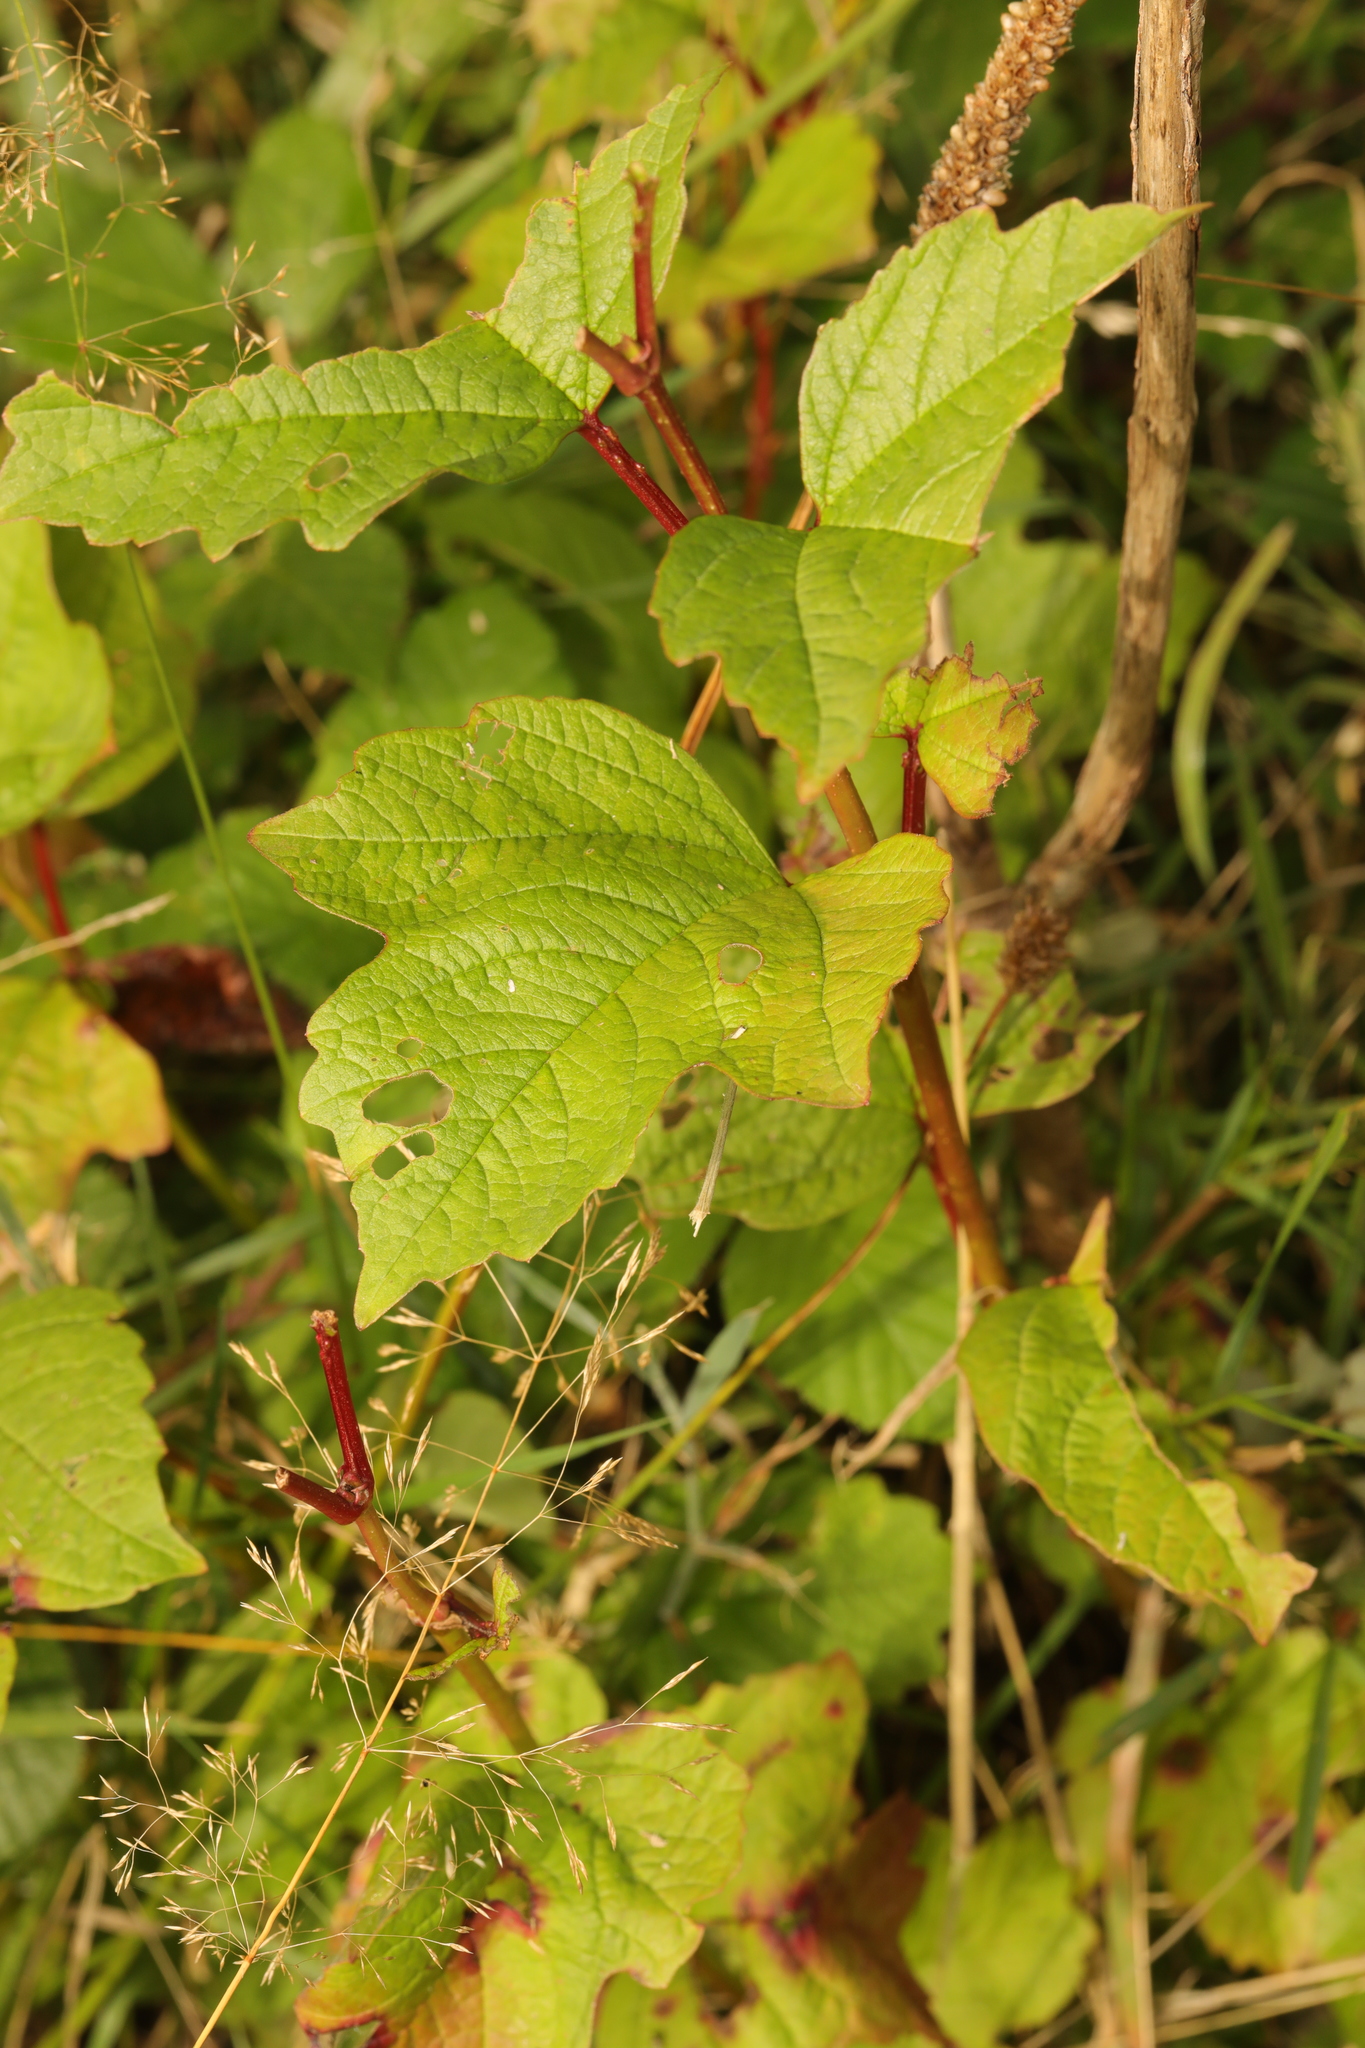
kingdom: Plantae
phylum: Tracheophyta
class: Magnoliopsida
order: Dipsacales
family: Viburnaceae
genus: Viburnum
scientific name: Viburnum opulus
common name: Guelder-rose
